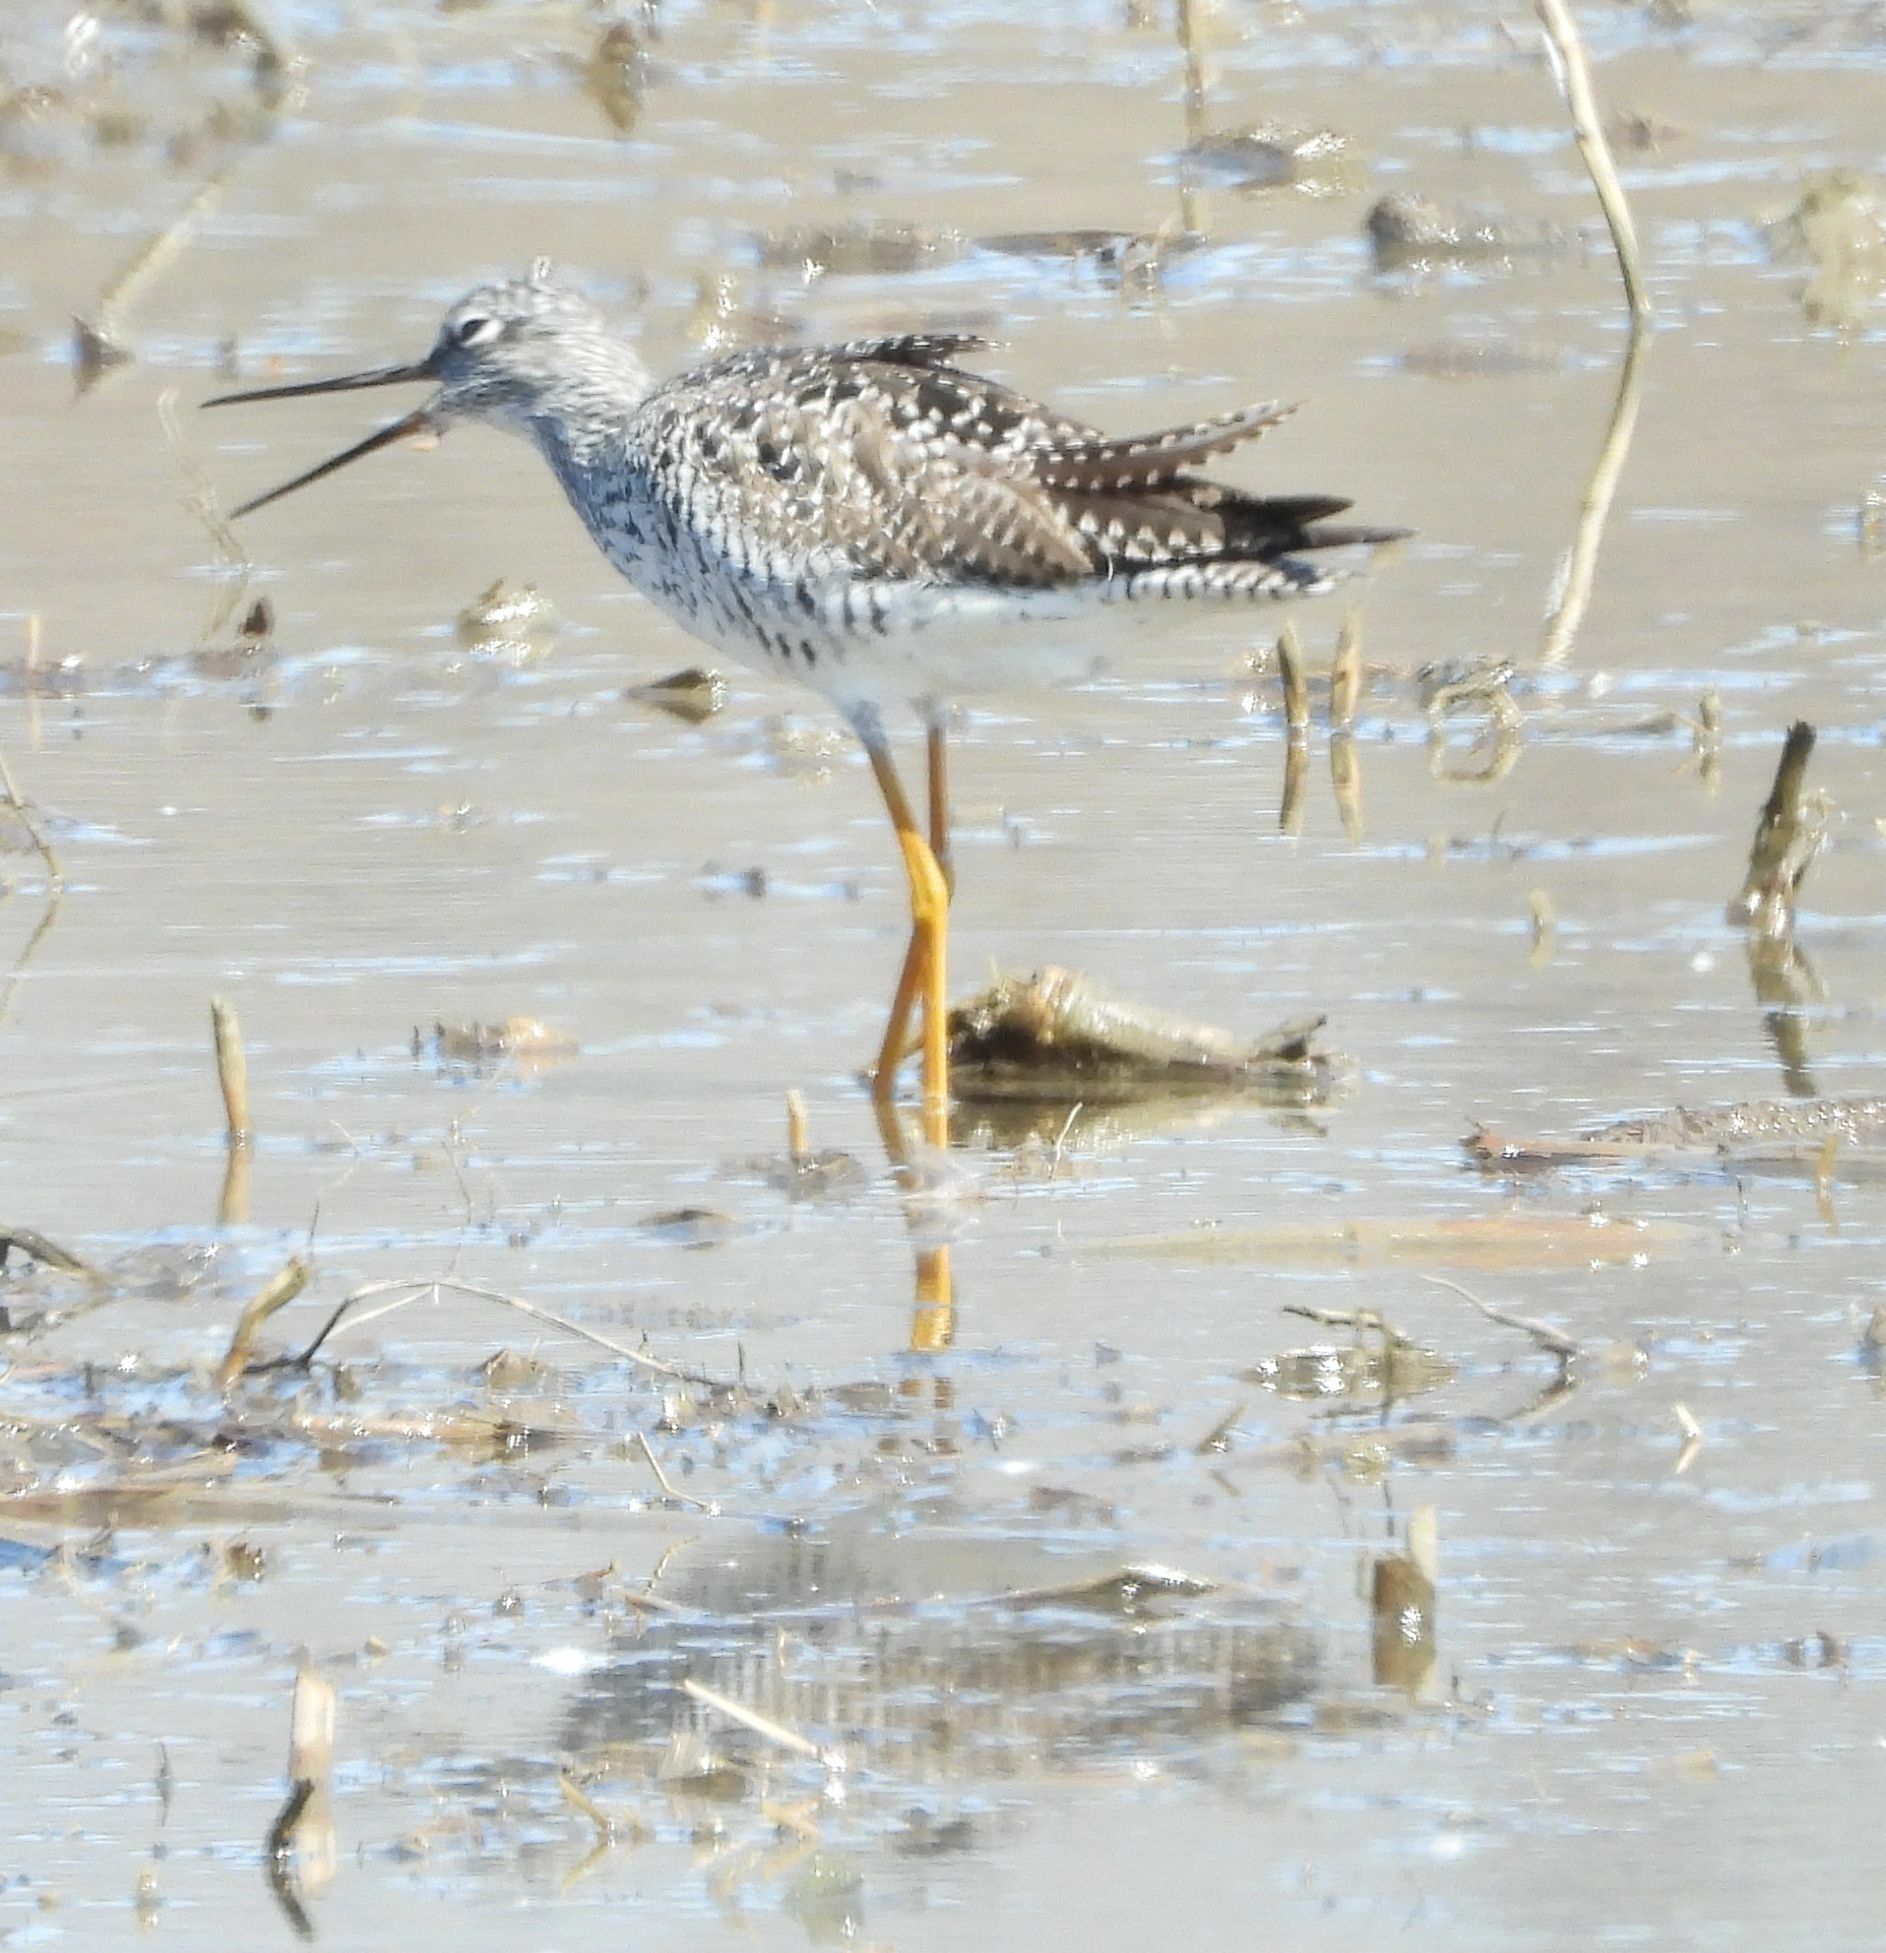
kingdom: Animalia
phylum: Chordata
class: Aves
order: Charadriiformes
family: Scolopacidae
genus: Tringa
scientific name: Tringa melanoleuca
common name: Greater yellowlegs
